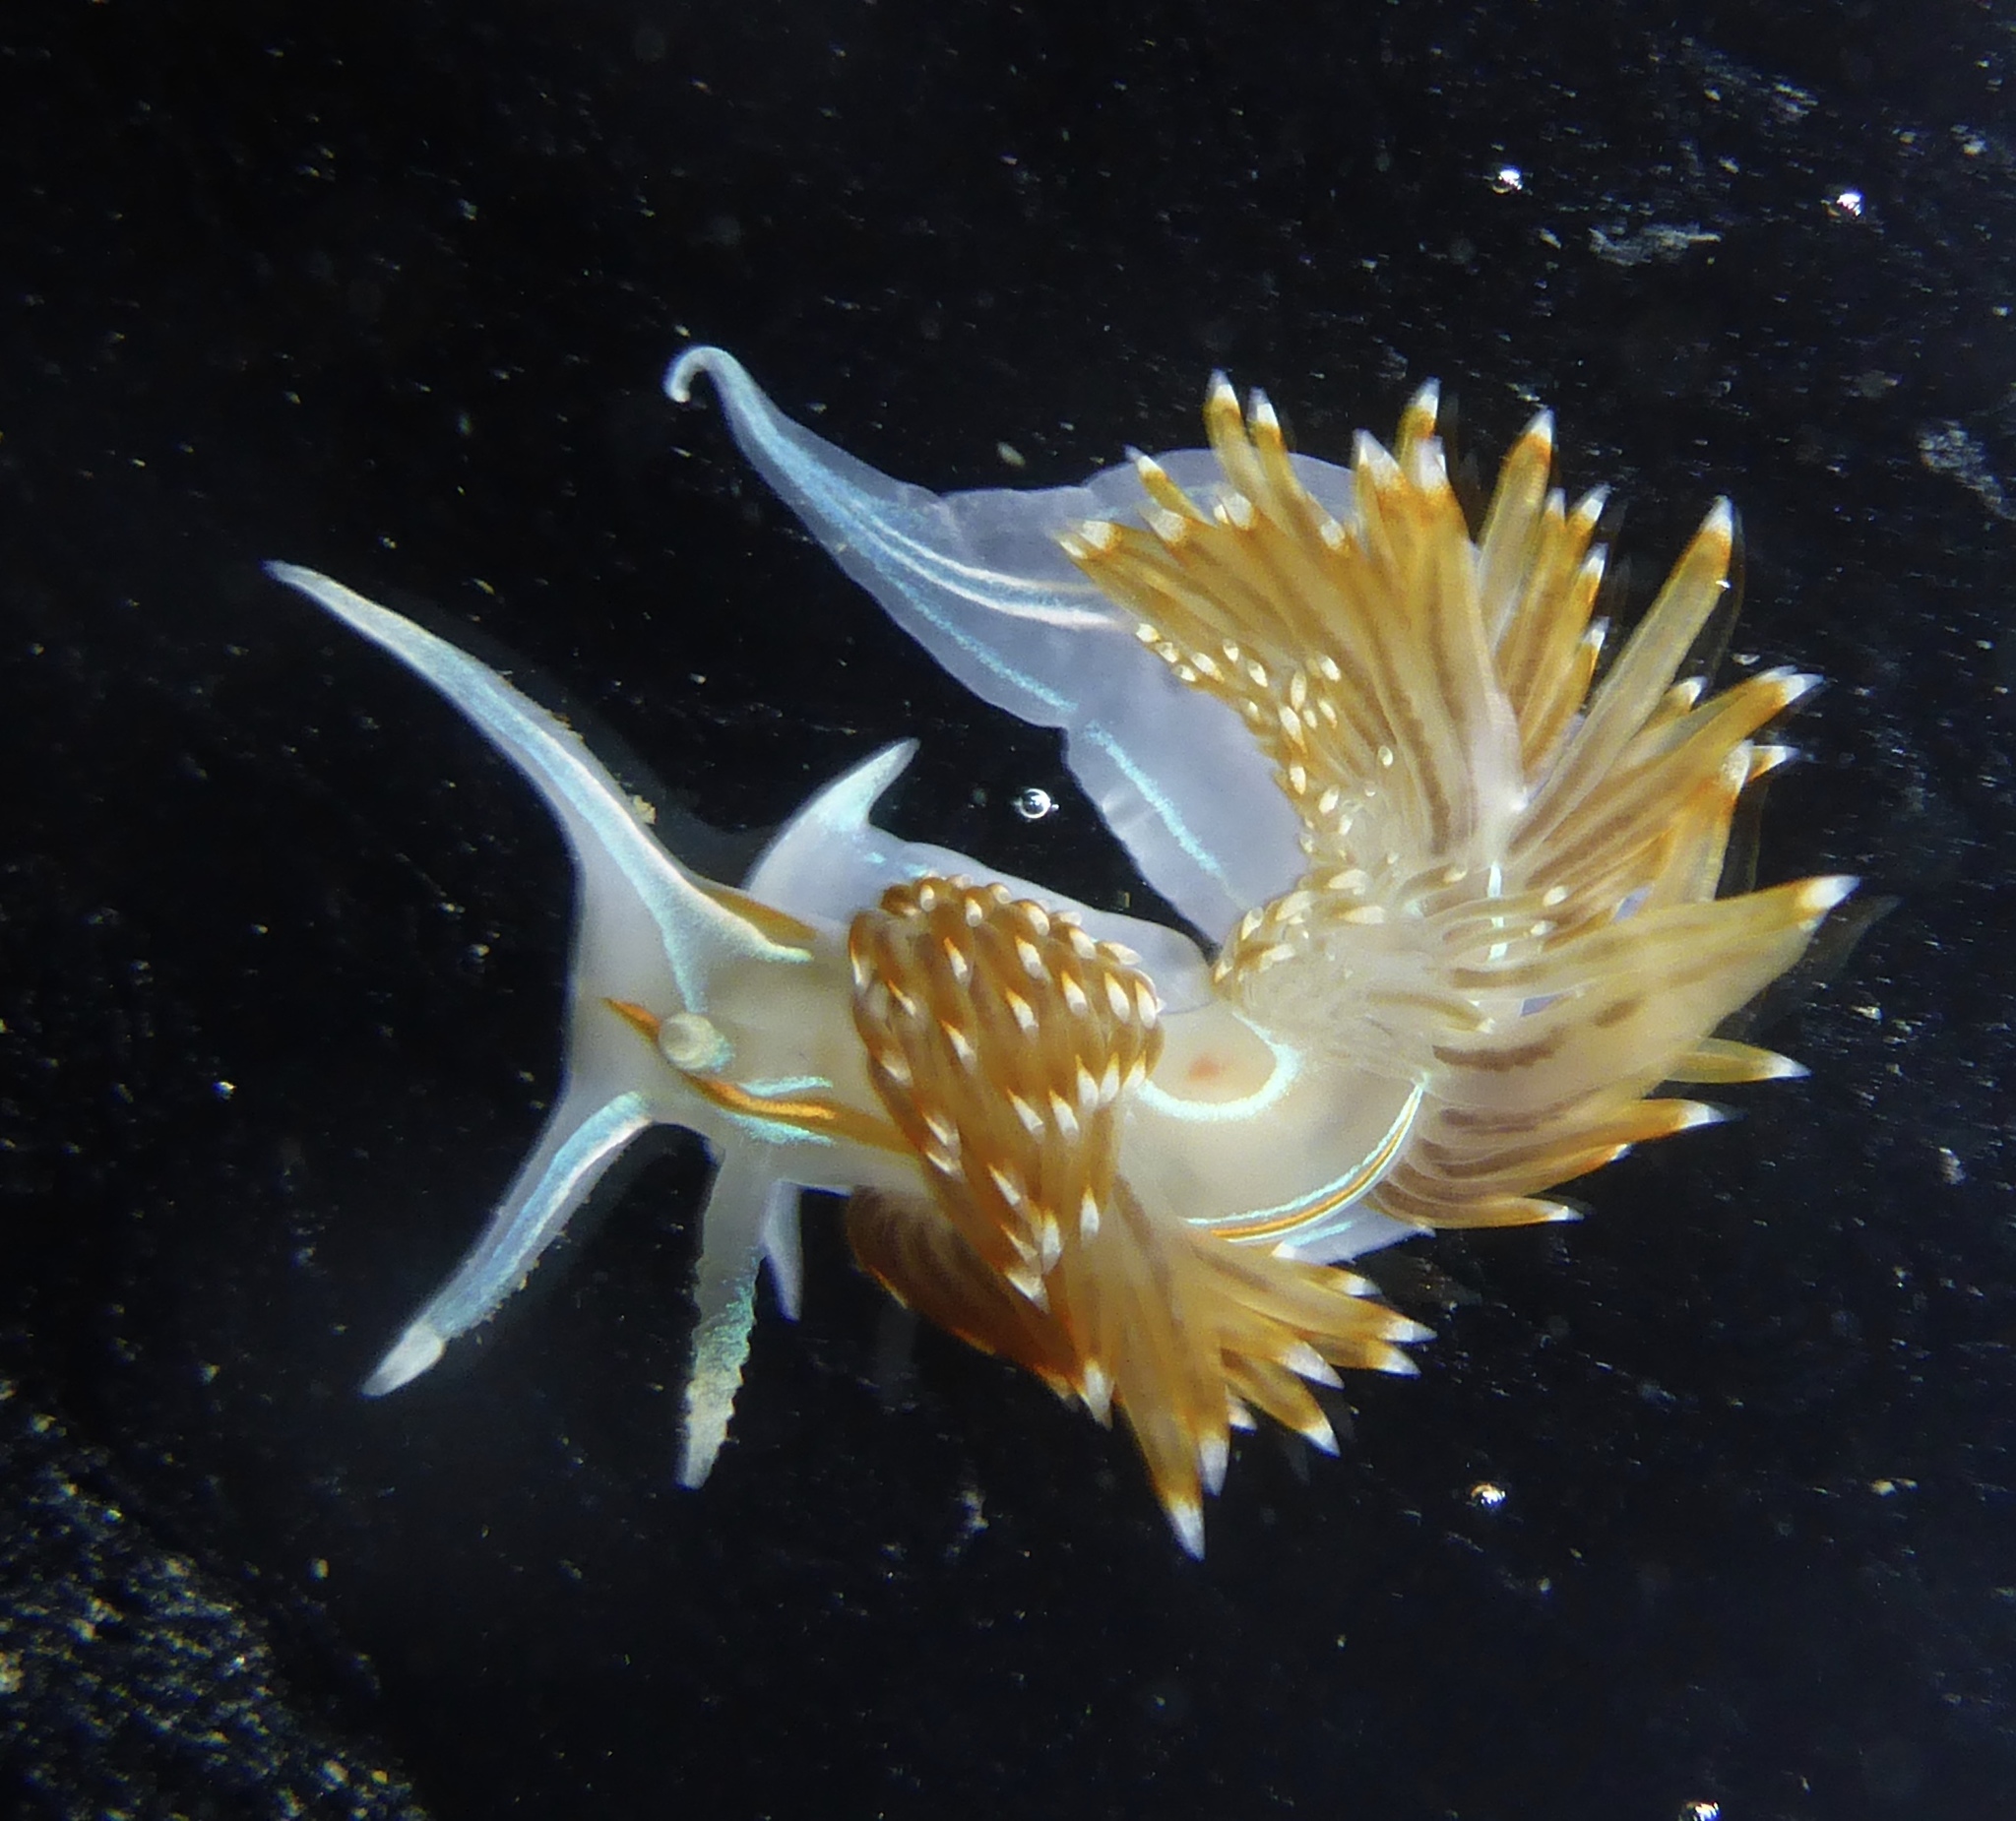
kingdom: Animalia
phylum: Mollusca
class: Gastropoda
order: Nudibranchia
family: Myrrhinidae
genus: Hermissenda
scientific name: Hermissenda opalescens
